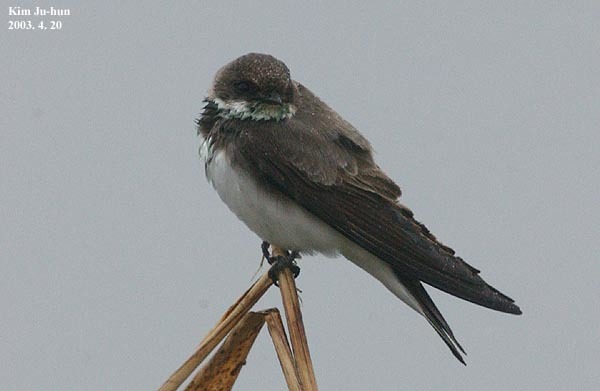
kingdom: Animalia
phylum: Chordata
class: Aves
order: Passeriformes
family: Hirundinidae
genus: Riparia
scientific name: Riparia riparia
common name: Sand martin
